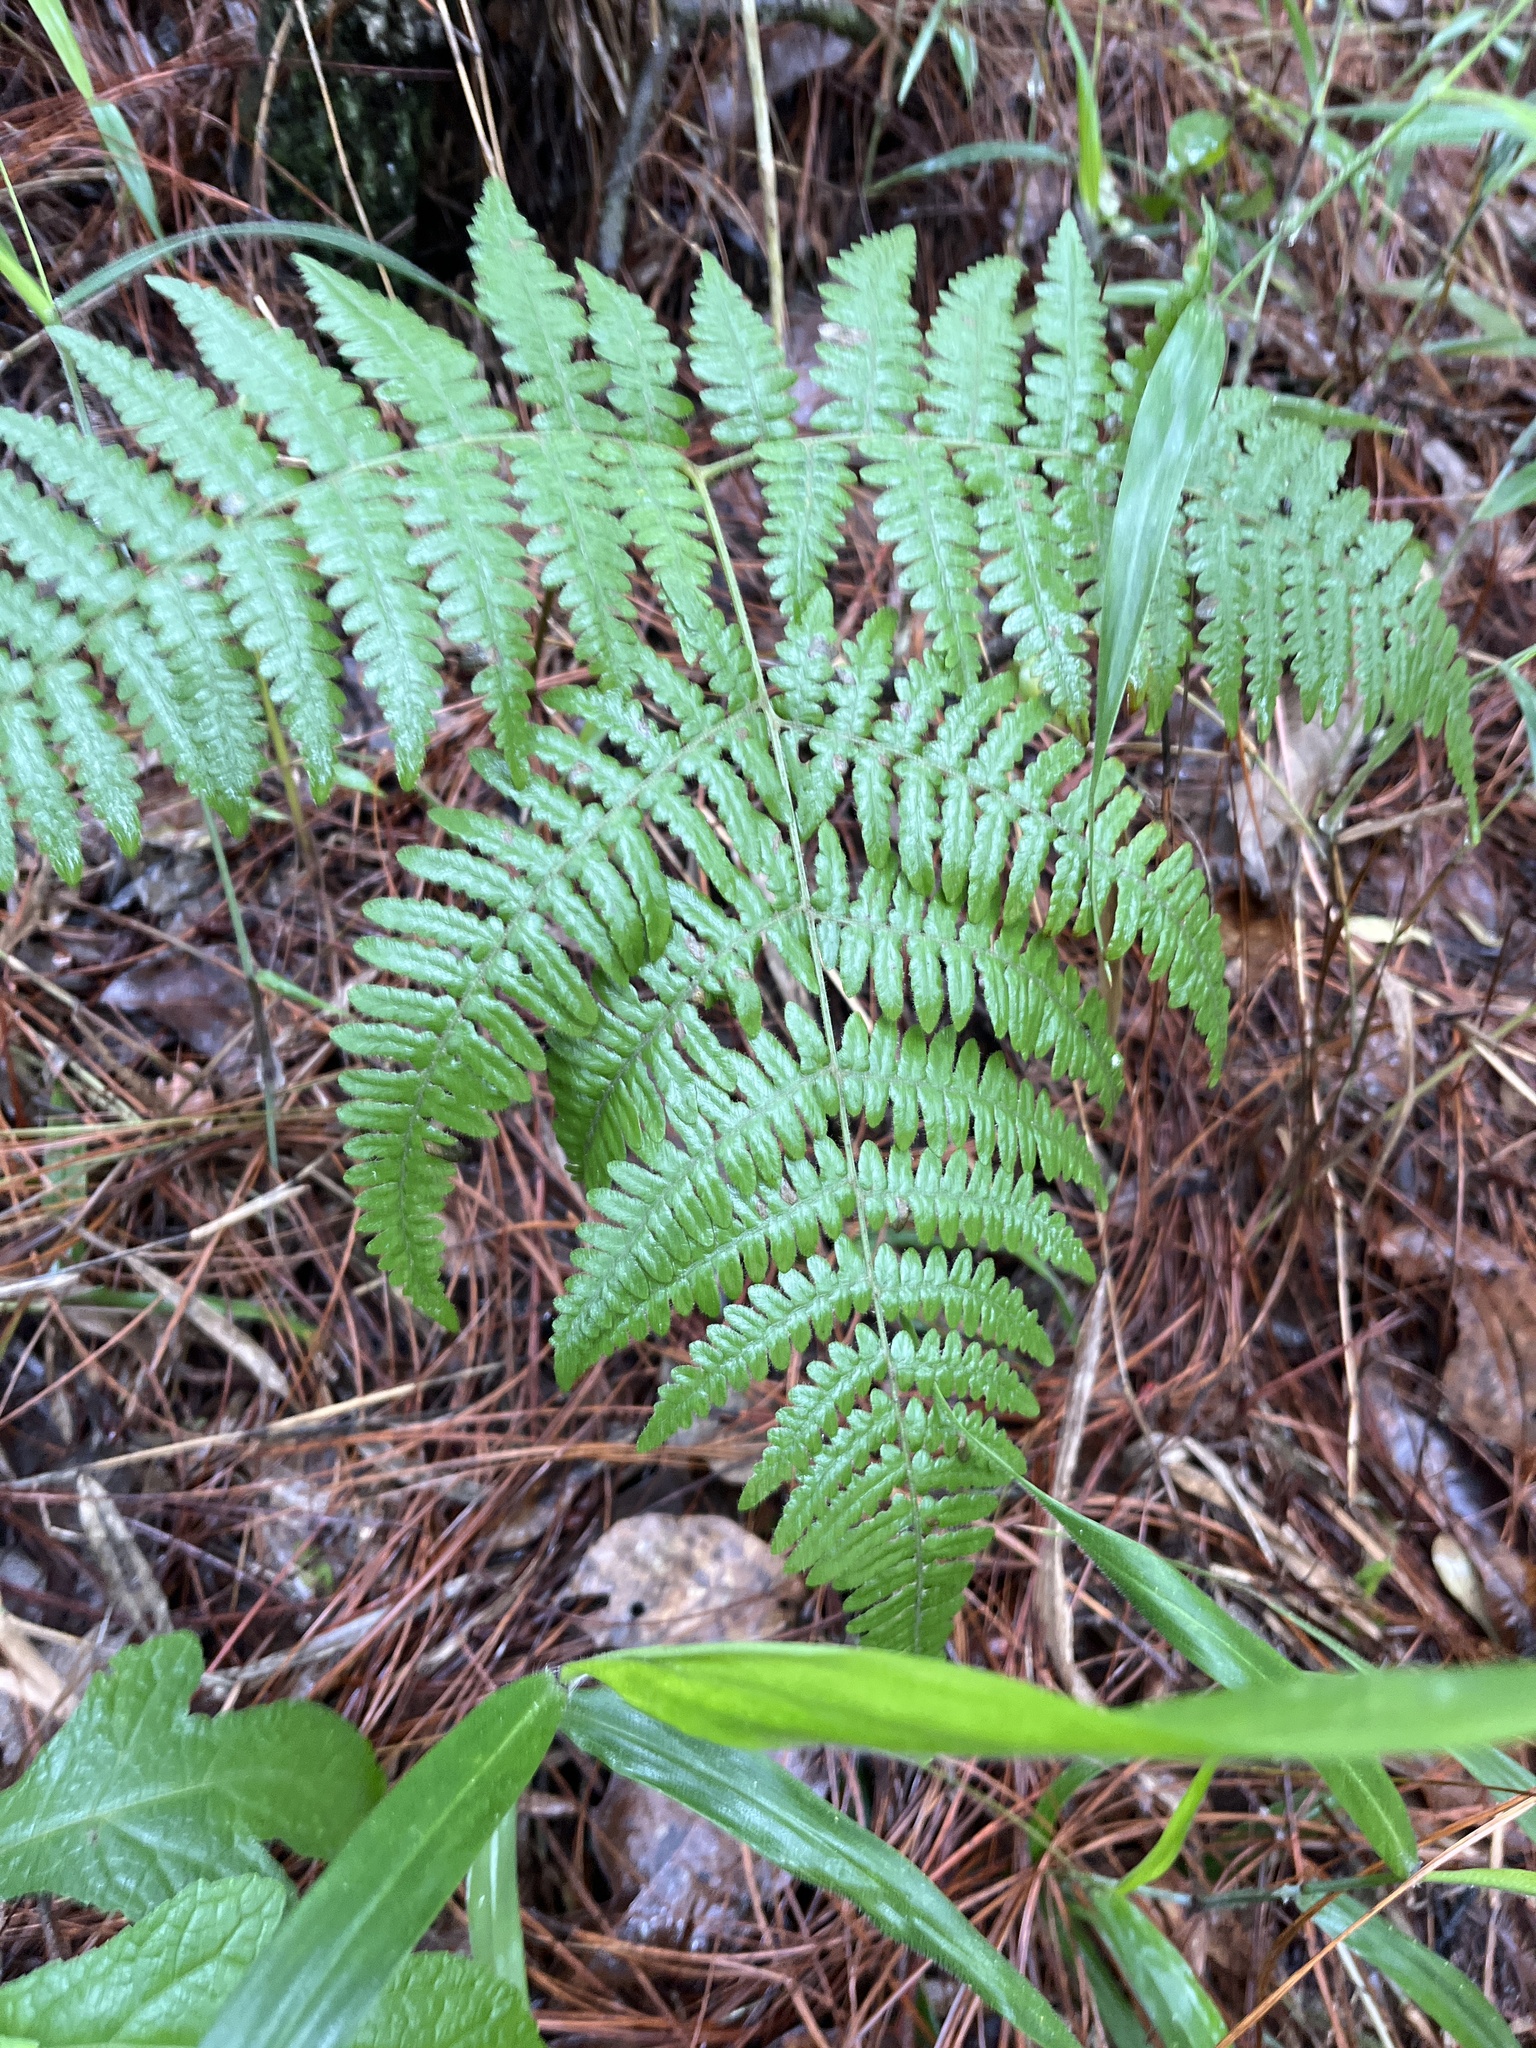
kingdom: Plantae
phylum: Tracheophyta
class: Polypodiopsida
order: Polypodiales
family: Dennstaedtiaceae
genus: Pteridium
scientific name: Pteridium aquilinum
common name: Bracken
